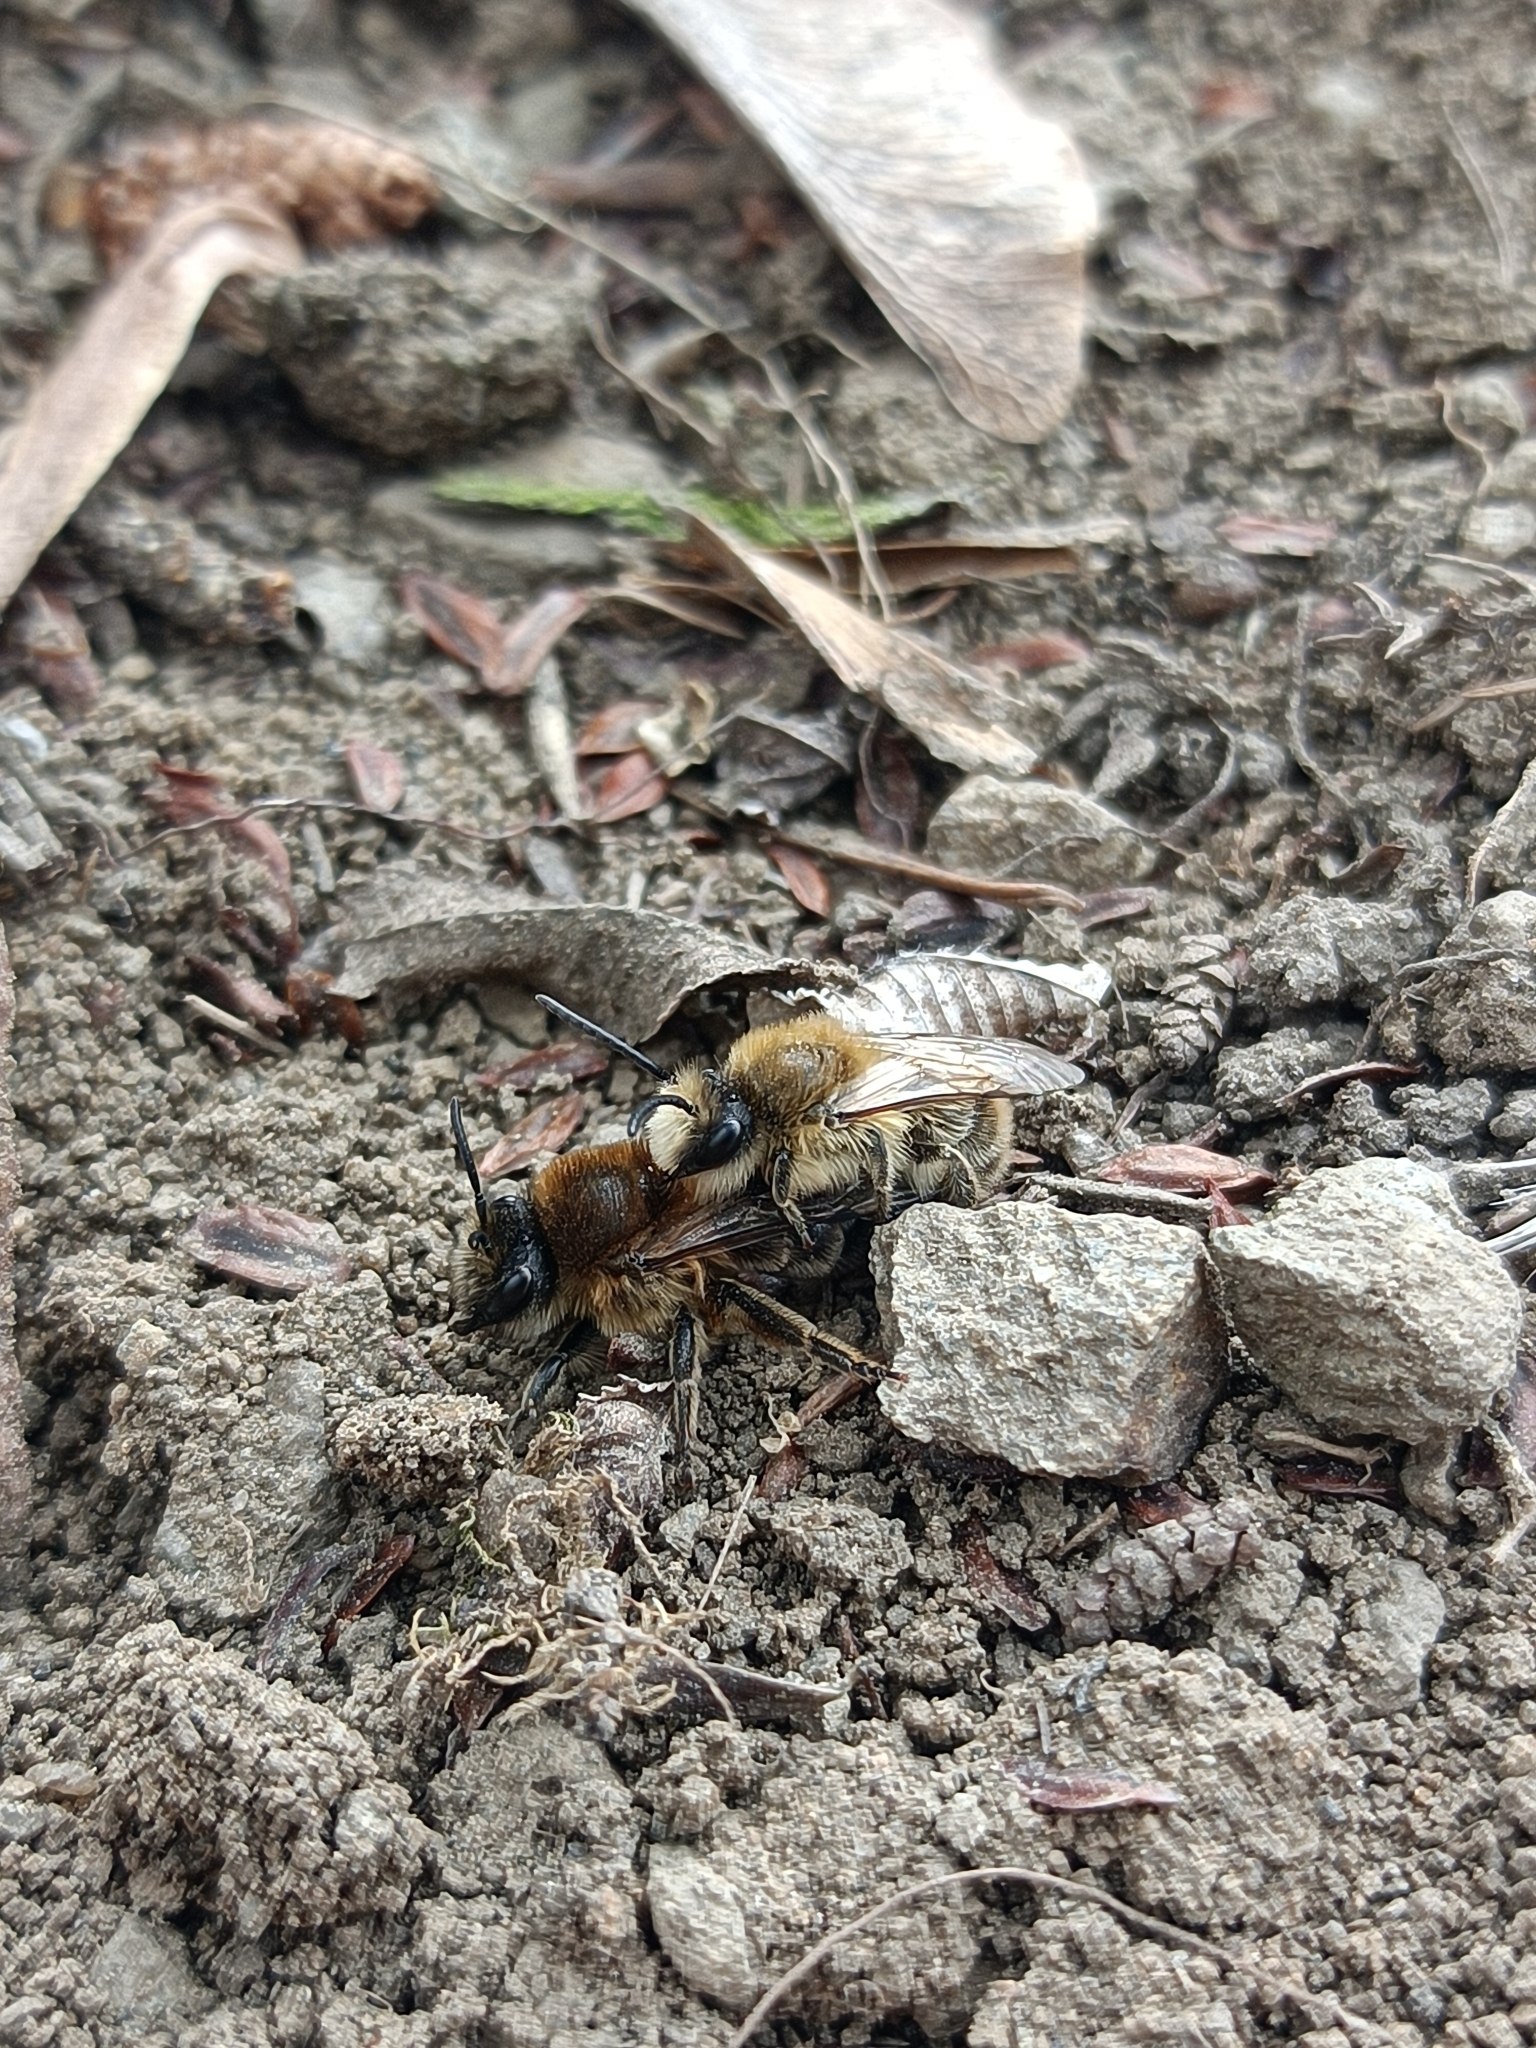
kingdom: Animalia
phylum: Arthropoda
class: Insecta
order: Hymenoptera
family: Colletidae
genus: Colletes
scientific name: Colletes cunicularius
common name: Early colletes
